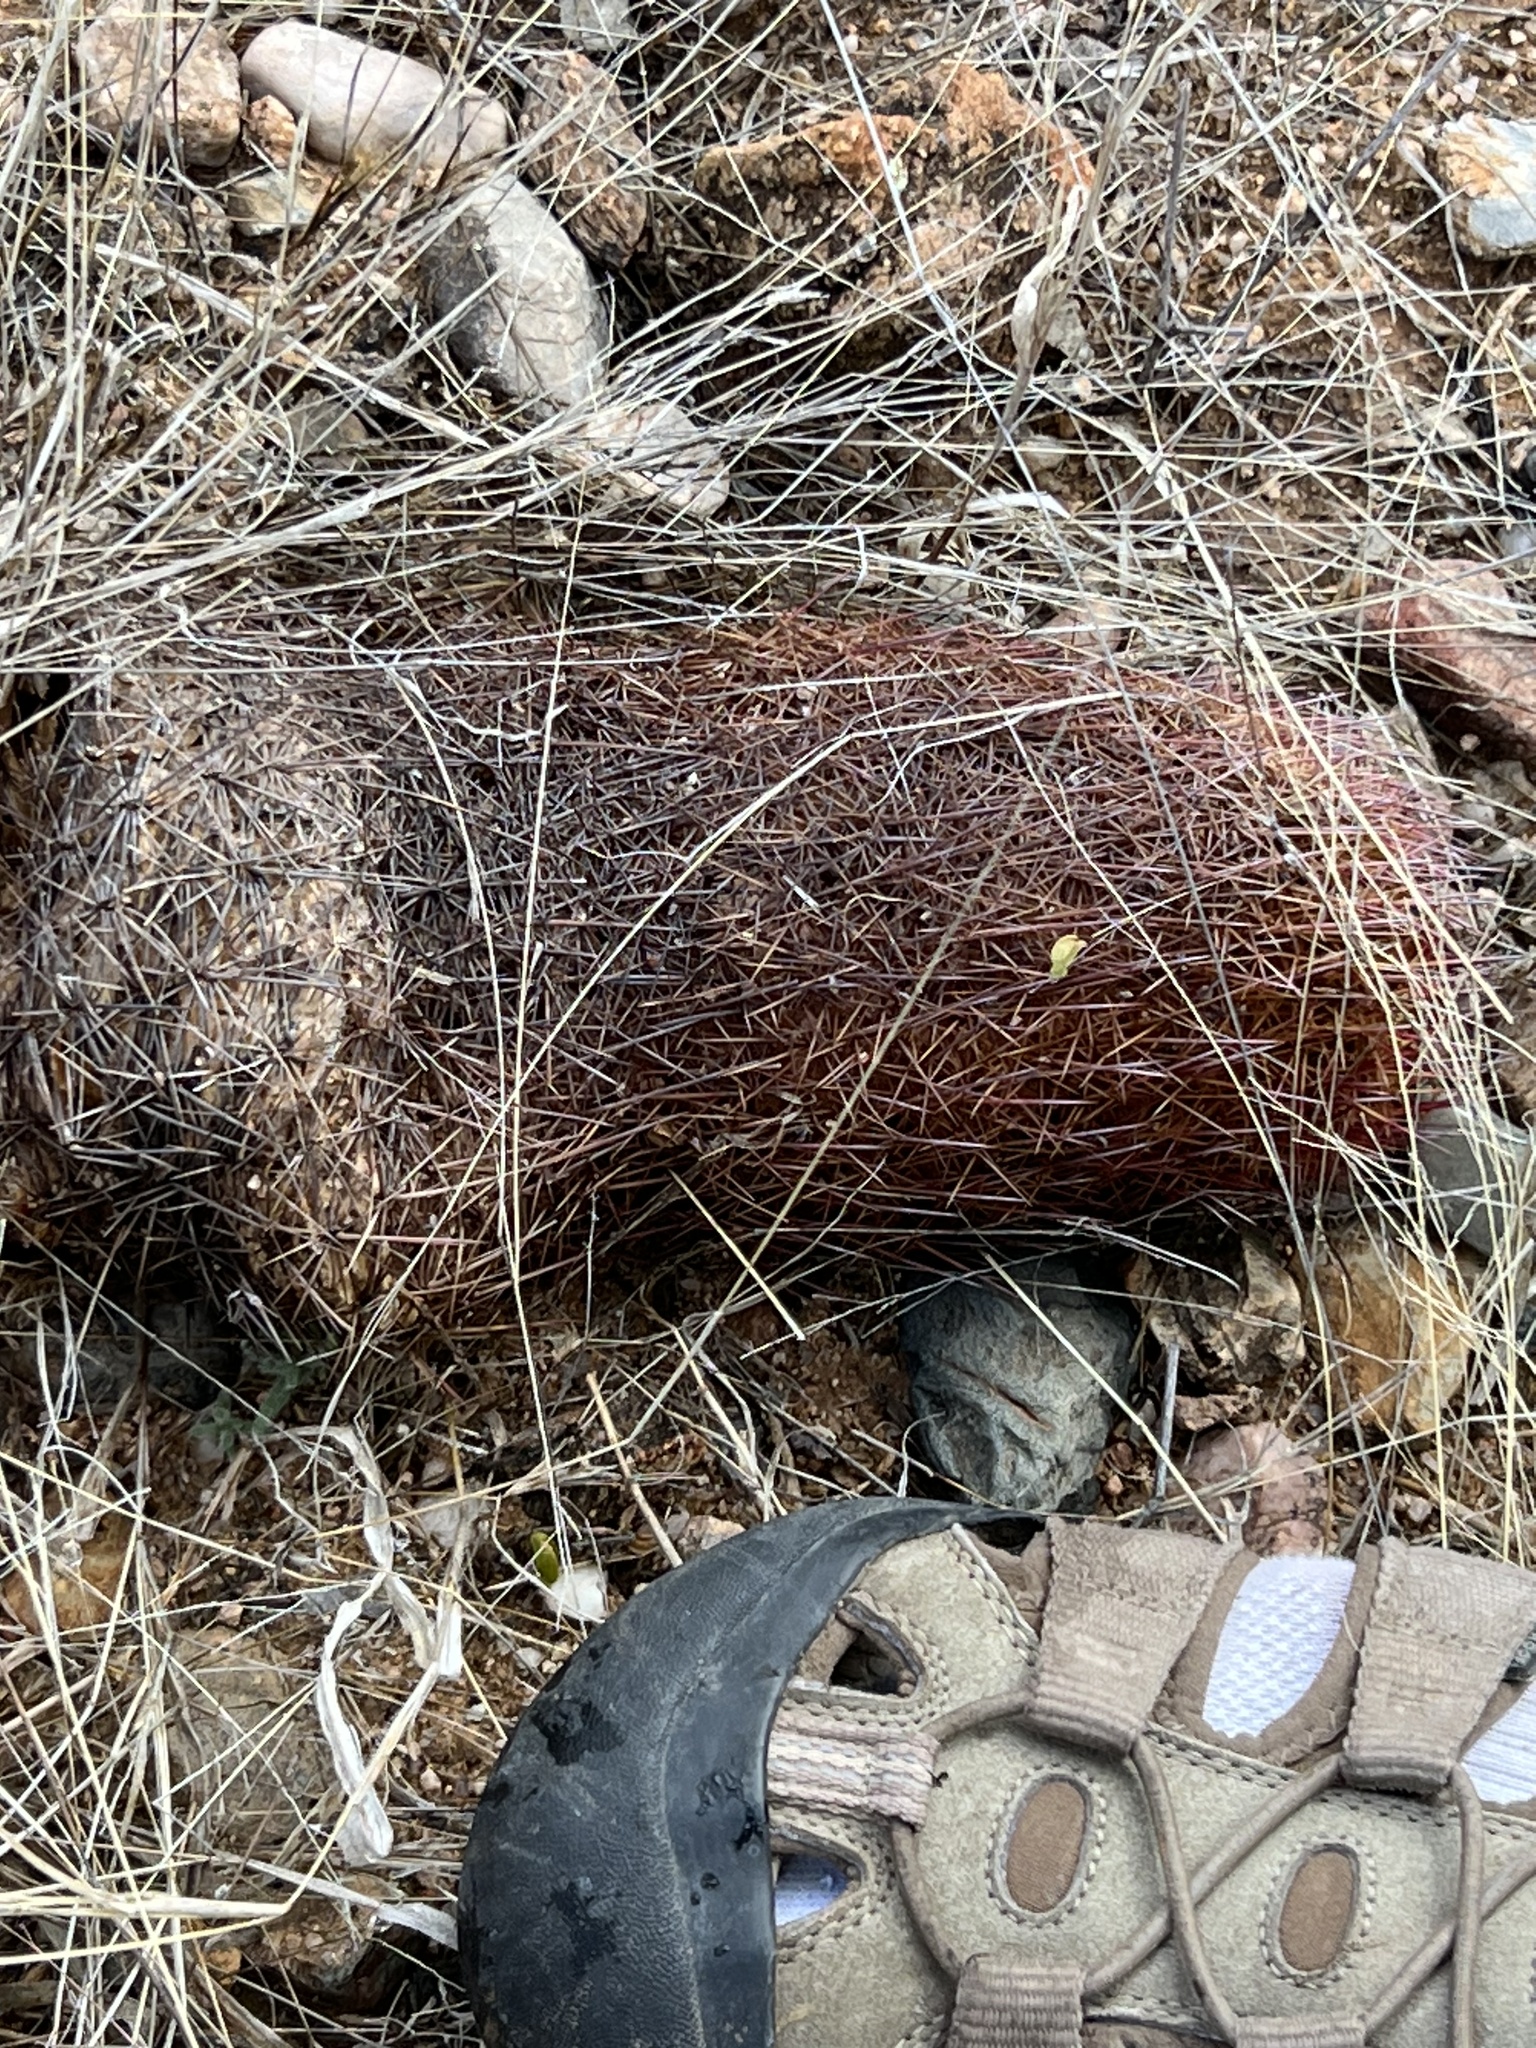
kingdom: Plantae
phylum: Tracheophyta
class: Magnoliopsida
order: Caryophyllales
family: Cactaceae
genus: Sclerocactus
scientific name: Sclerocactus johnsonii
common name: Eight-spine fishhook cactus
